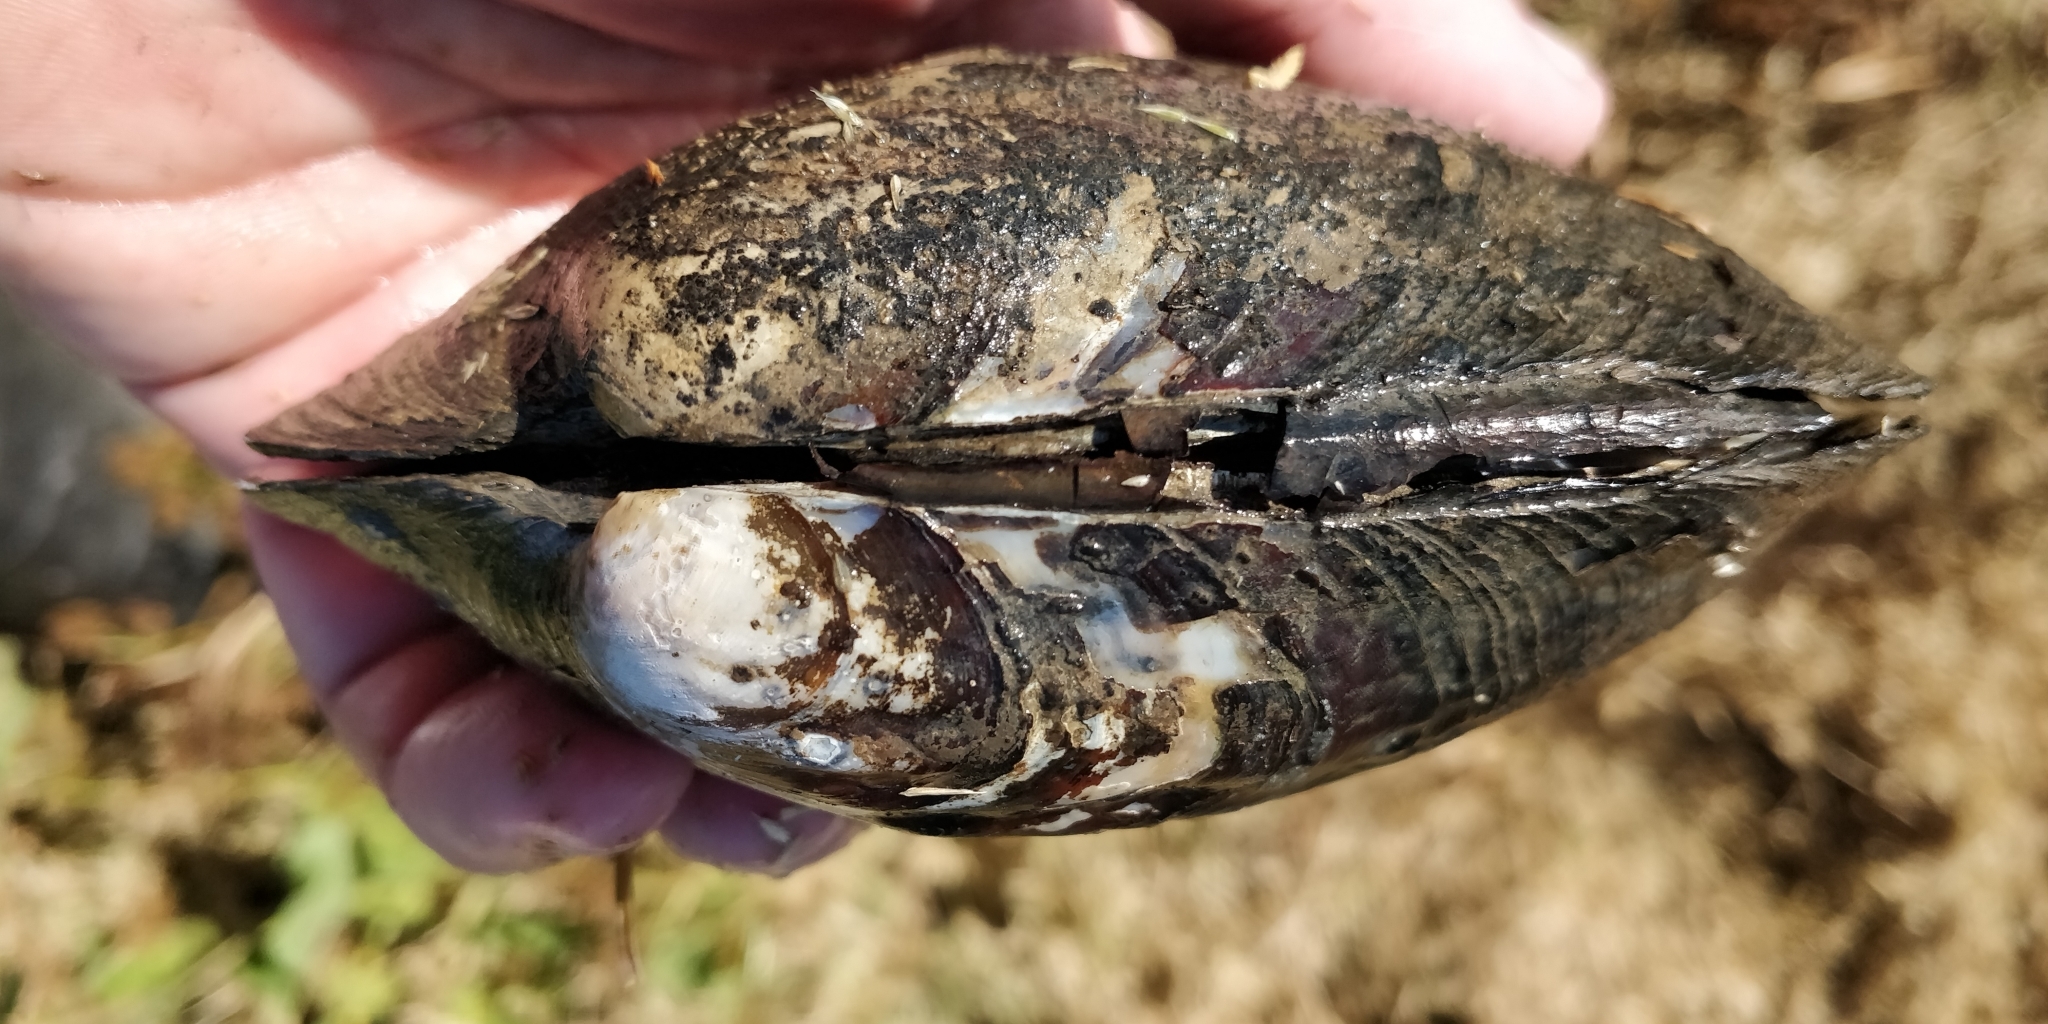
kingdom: Animalia
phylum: Mollusca
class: Bivalvia
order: Unionida
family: Unionidae
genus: Amblema
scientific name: Amblema plicata
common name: Threeridge
